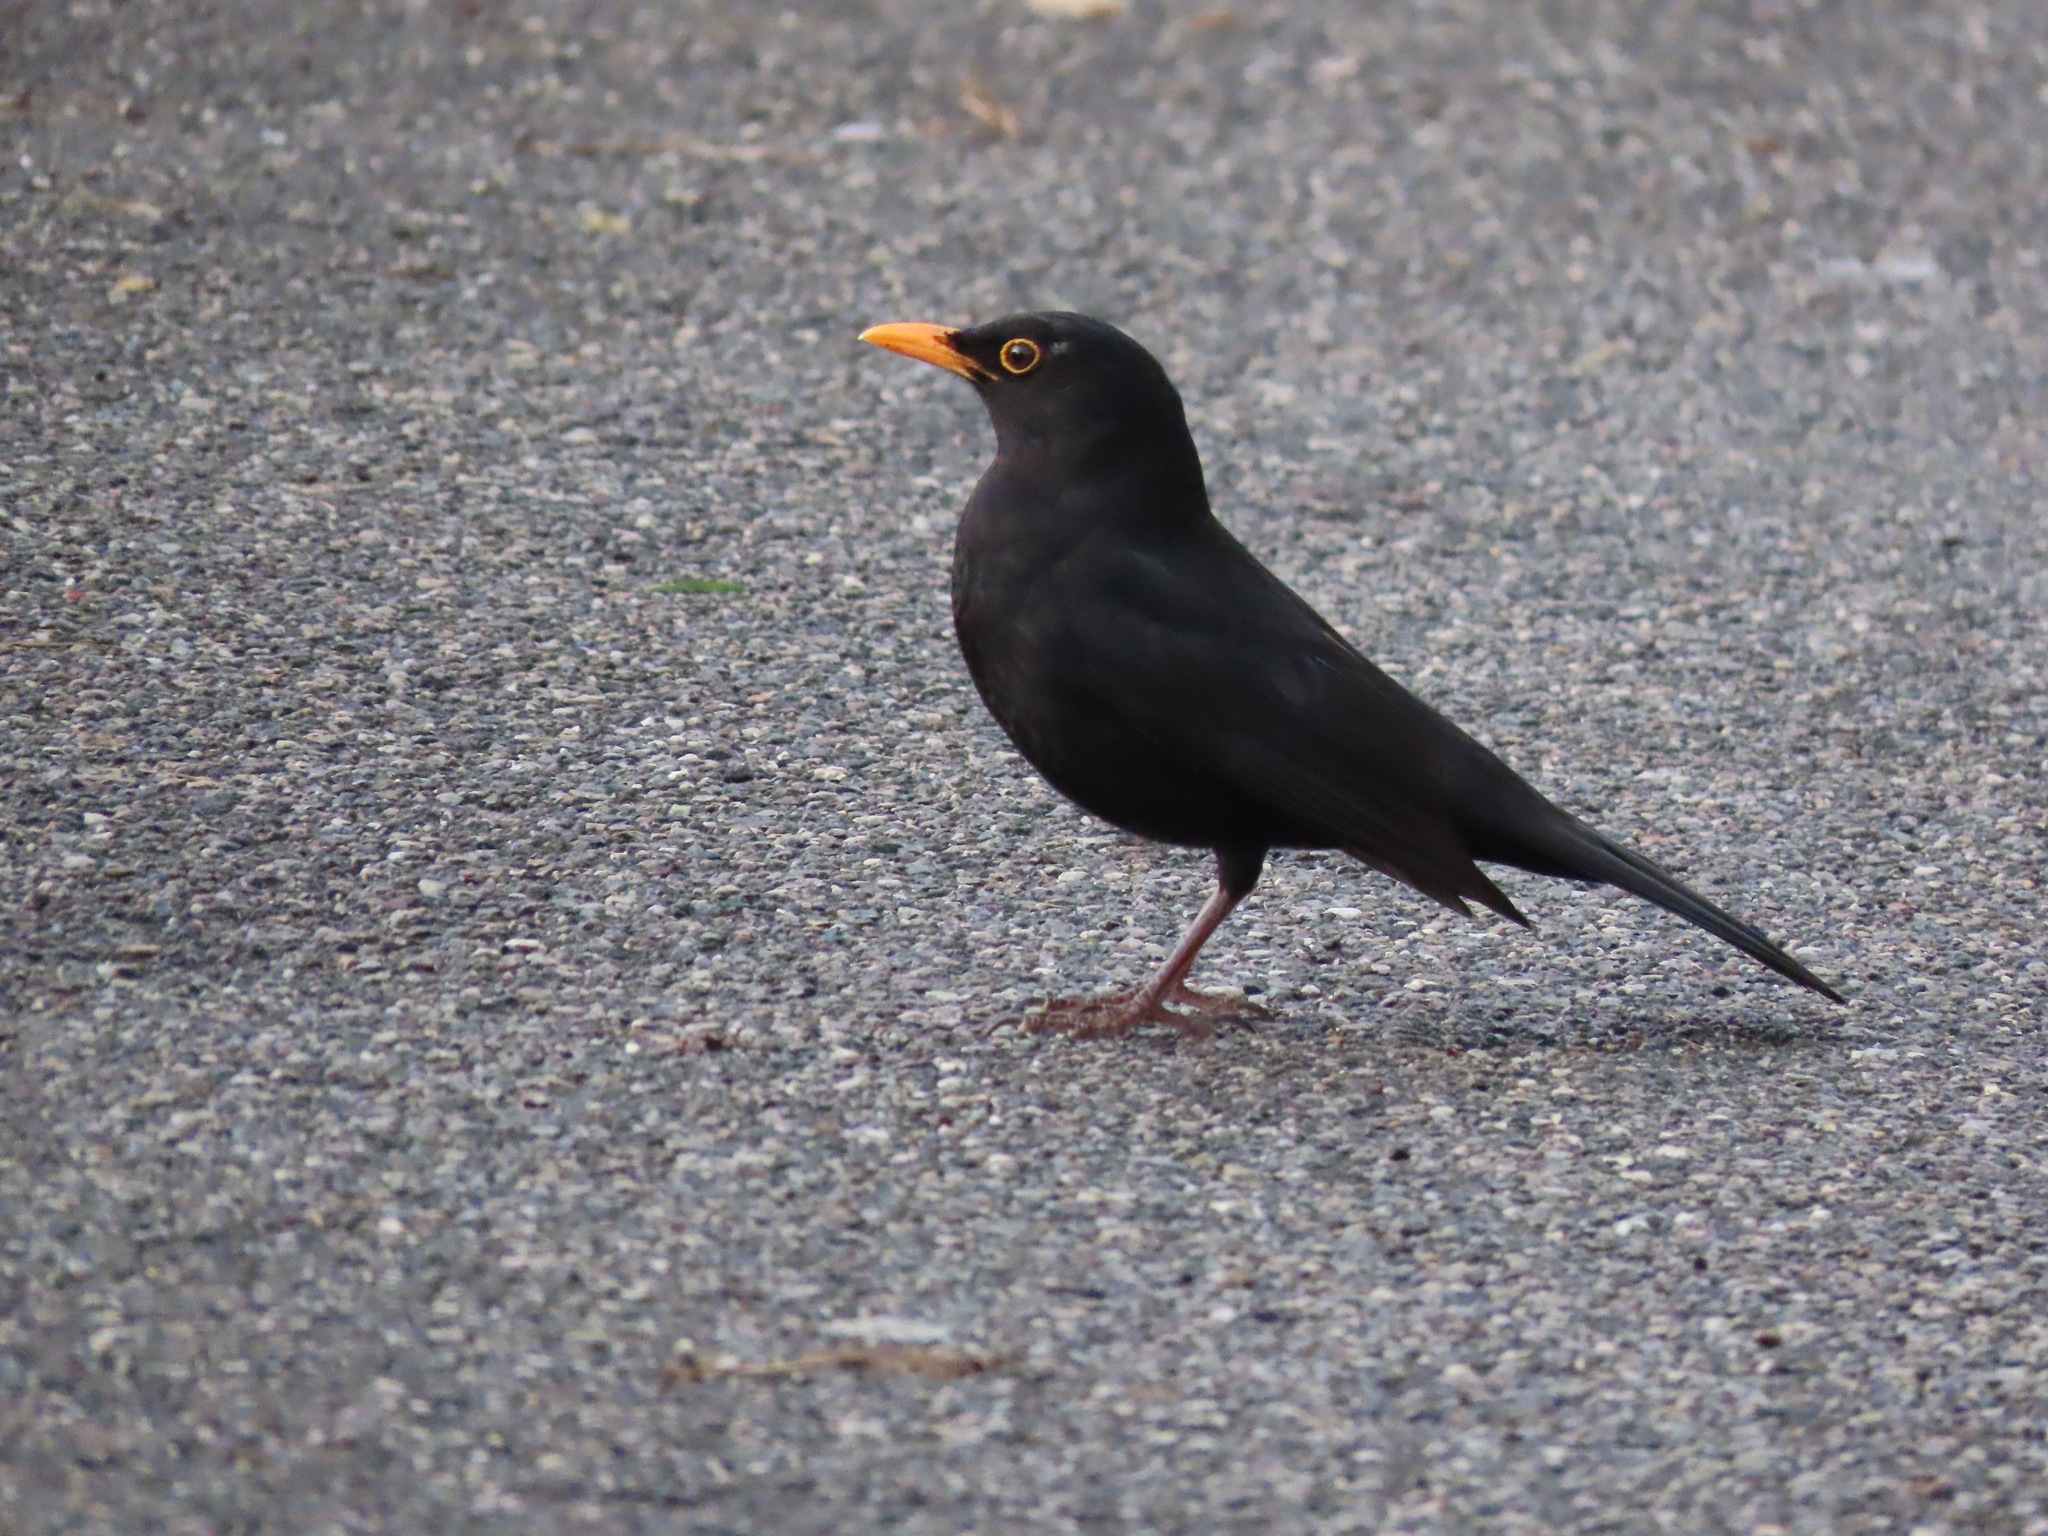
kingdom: Animalia
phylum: Chordata
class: Aves
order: Passeriformes
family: Turdidae
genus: Turdus
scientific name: Turdus merula
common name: Common blackbird
